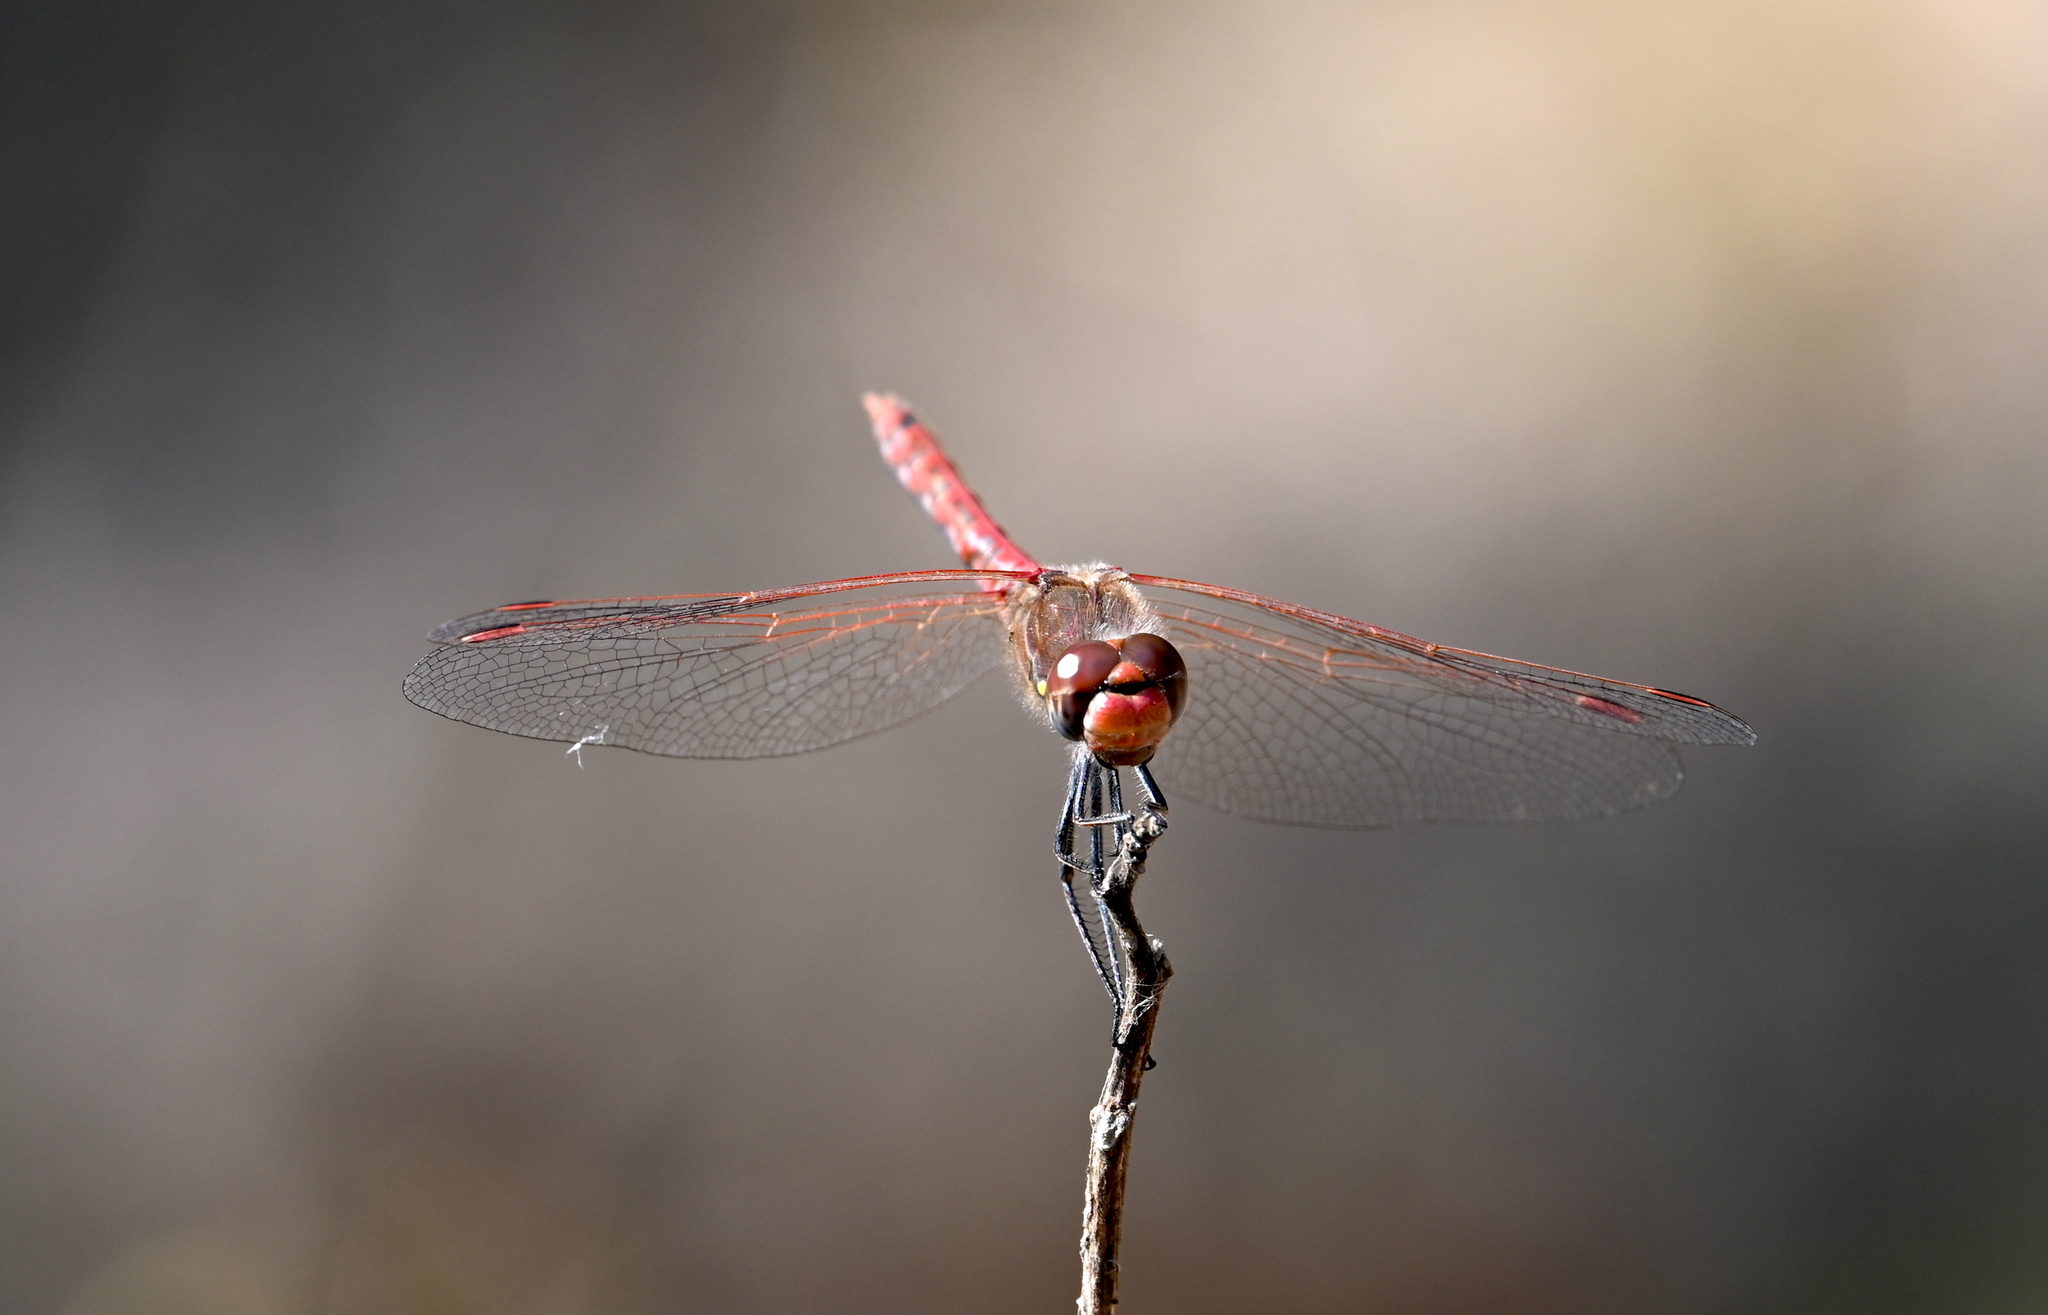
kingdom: Animalia
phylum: Arthropoda
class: Insecta
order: Odonata
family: Libellulidae
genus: Sympetrum
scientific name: Sympetrum corruptum
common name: Variegated meadowhawk
